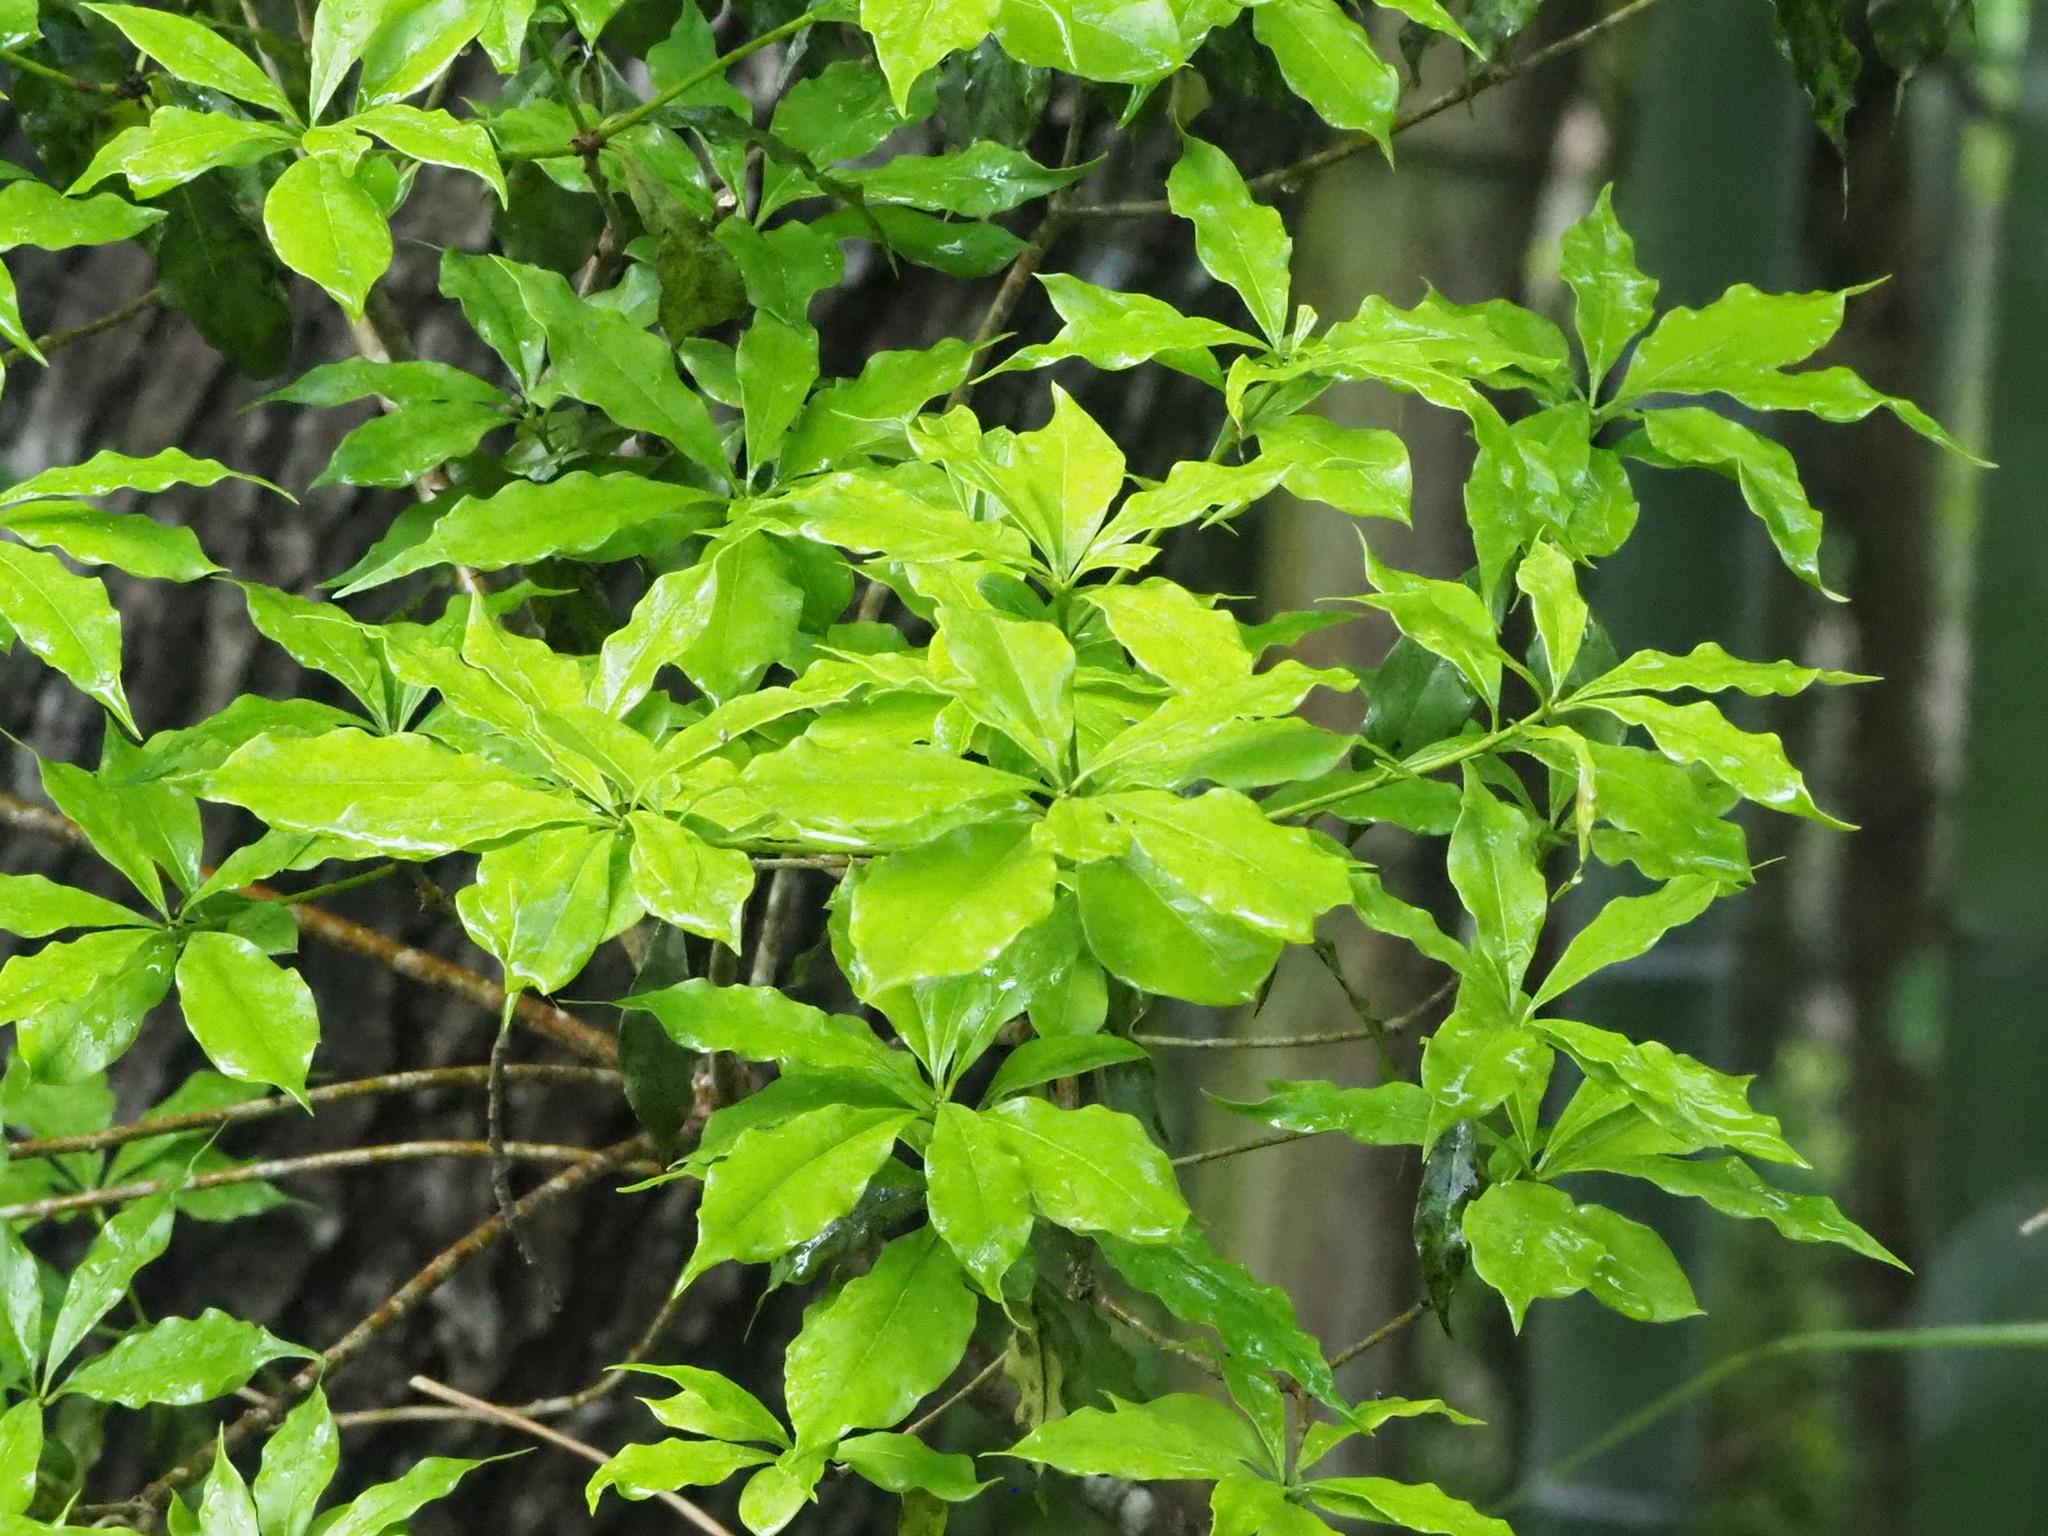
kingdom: Plantae
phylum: Tracheophyta
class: Magnoliopsida
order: Apiales
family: Pittosporaceae
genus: Pittosporum
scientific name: Pittosporum illicioides
